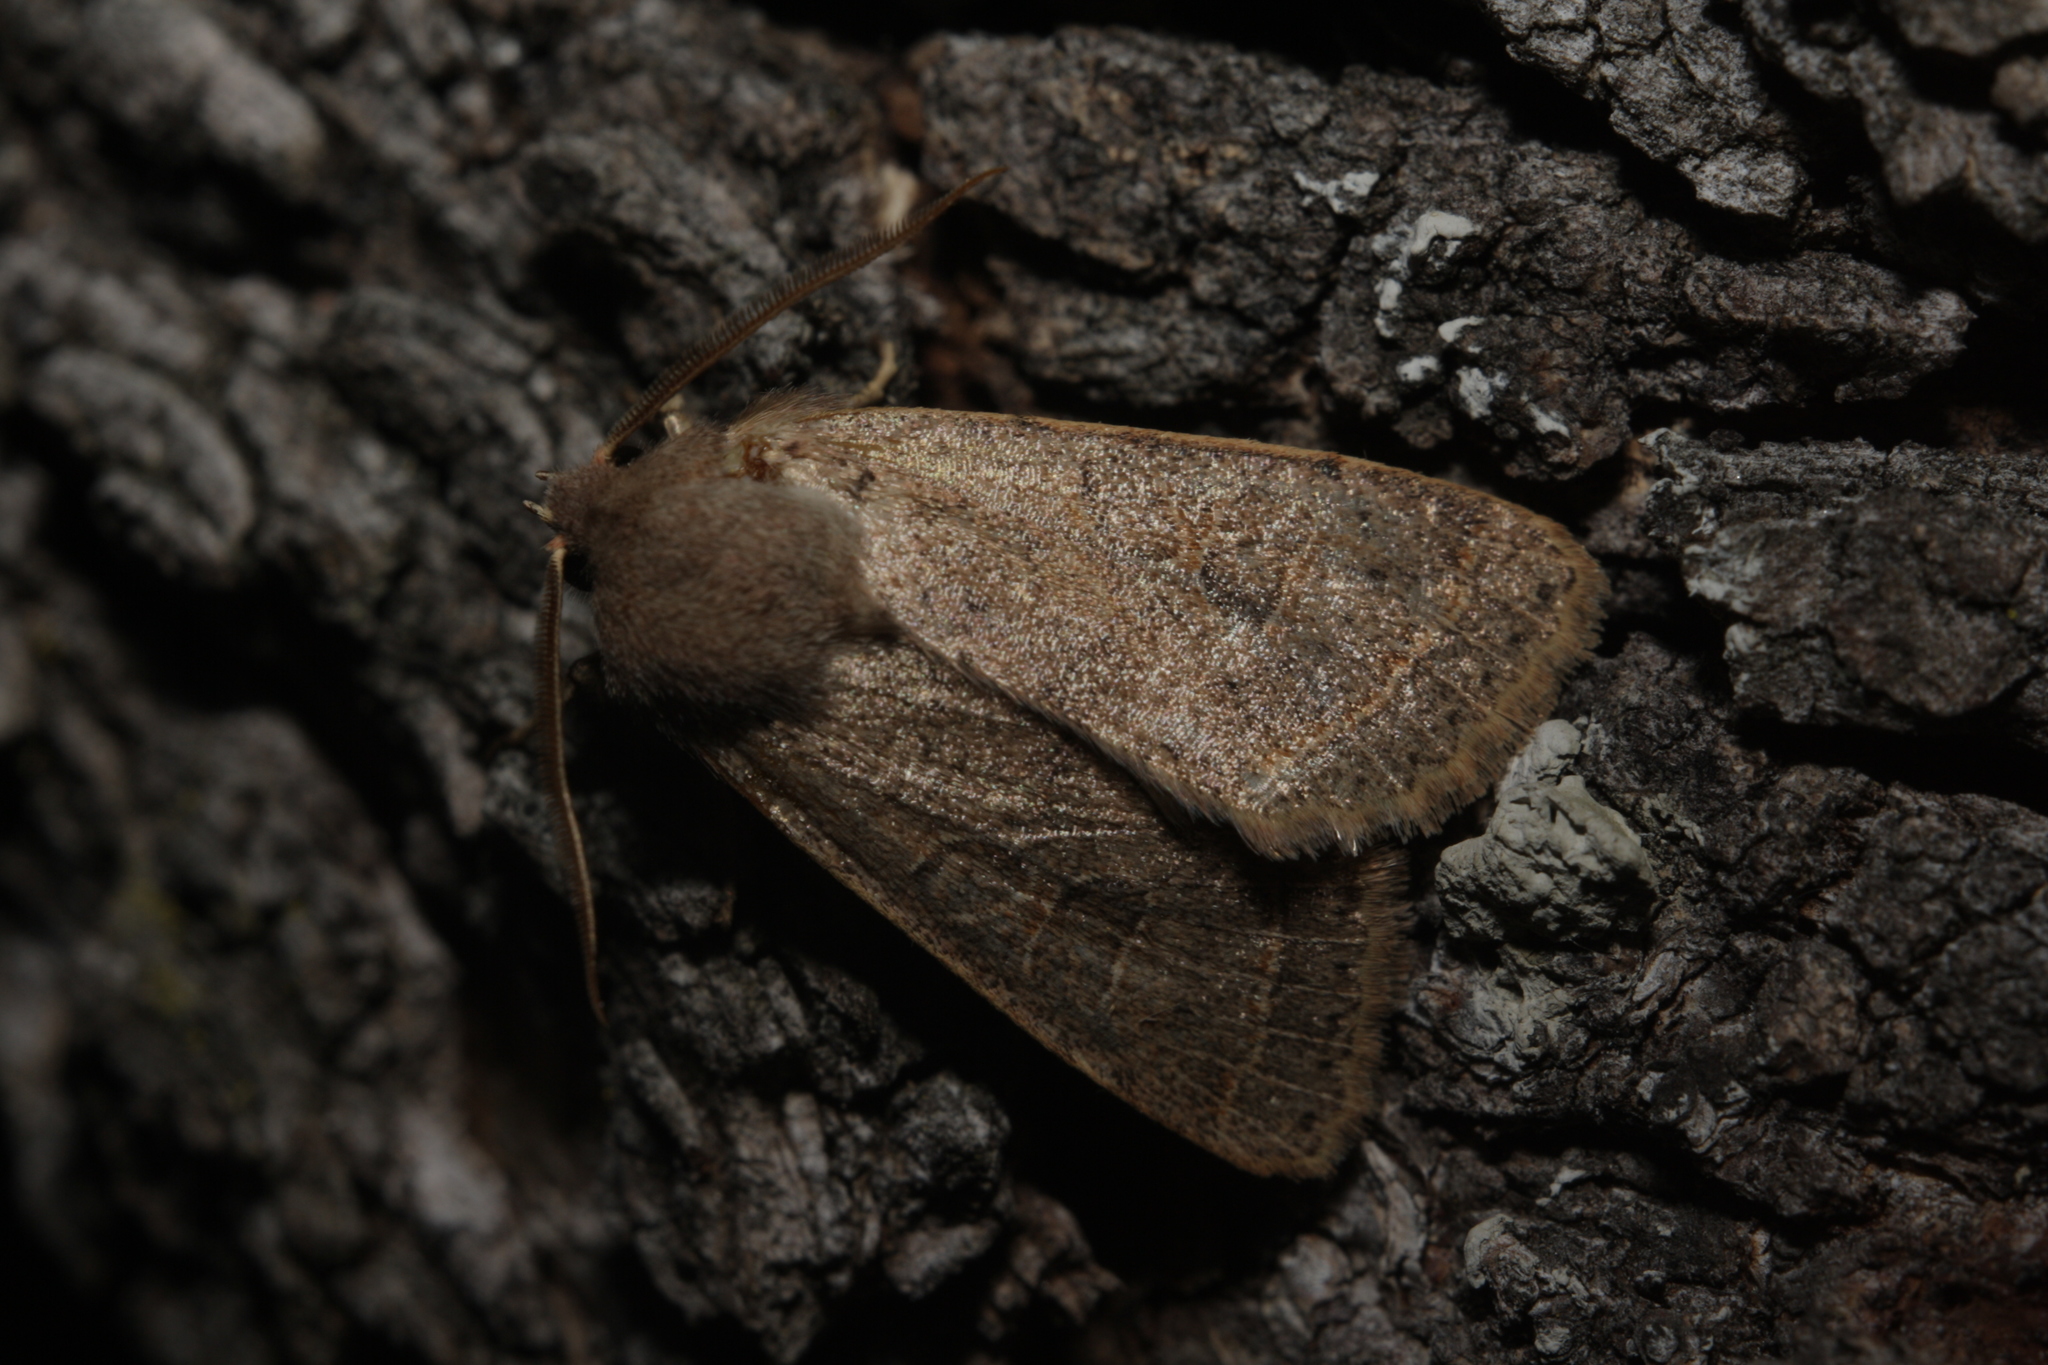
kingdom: Animalia
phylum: Arthropoda
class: Insecta
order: Lepidoptera
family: Noctuidae
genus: Orthosia
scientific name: Orthosia cerasi
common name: Common quaker
